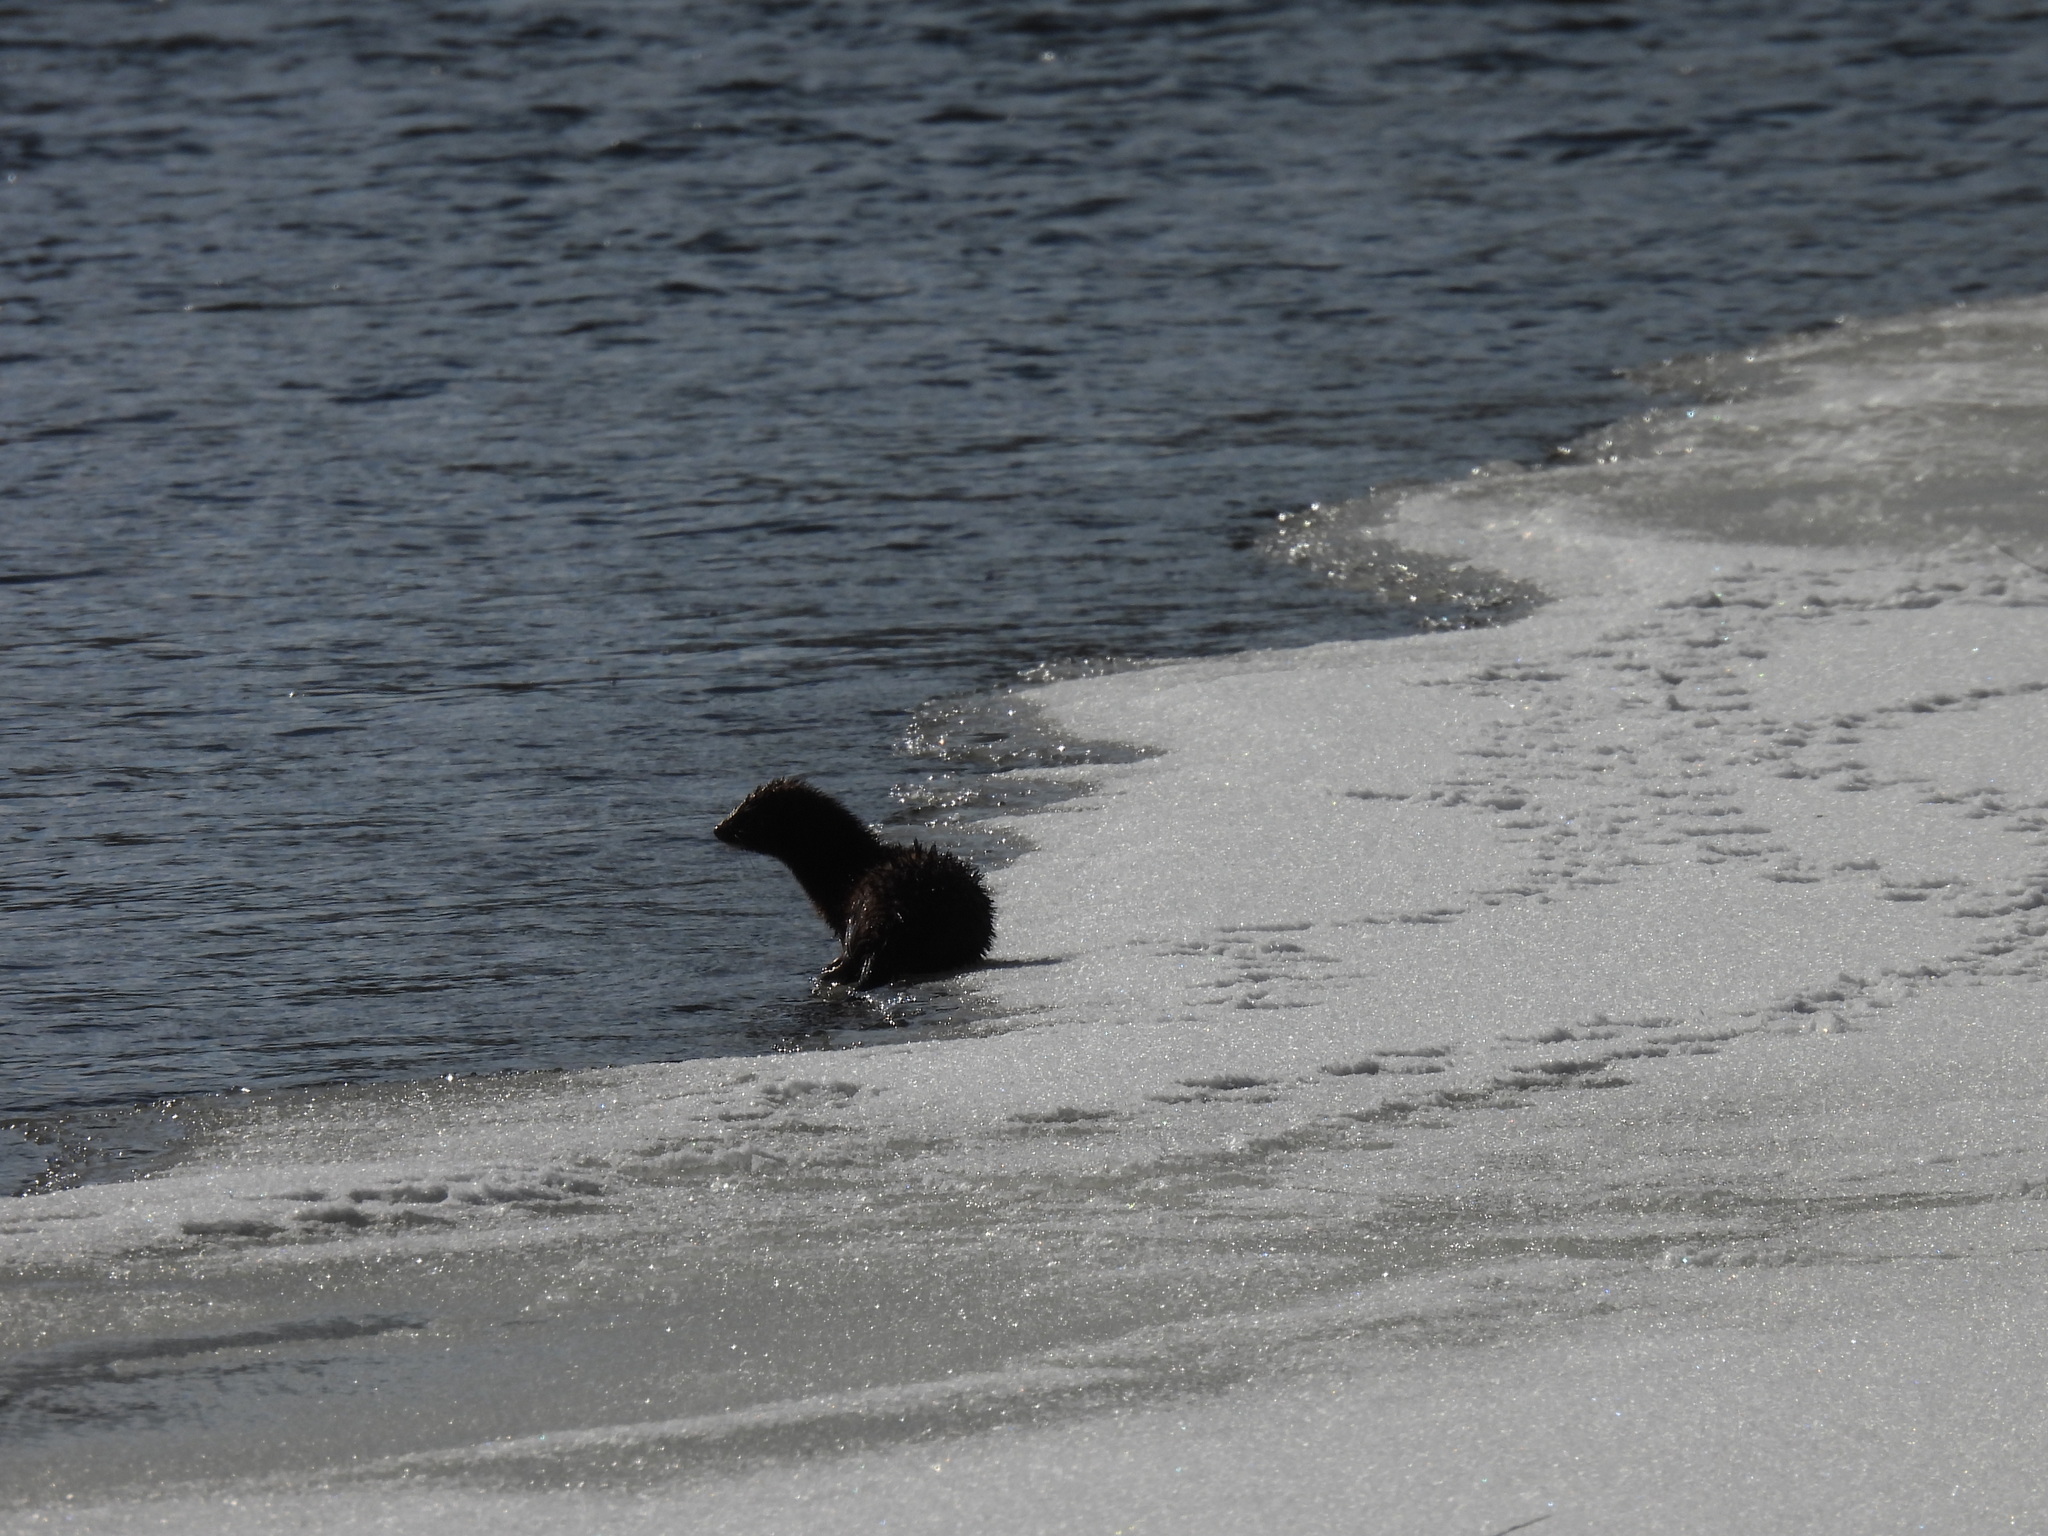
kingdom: Animalia
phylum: Chordata
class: Mammalia
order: Carnivora
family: Mustelidae
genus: Mustela
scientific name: Mustela
